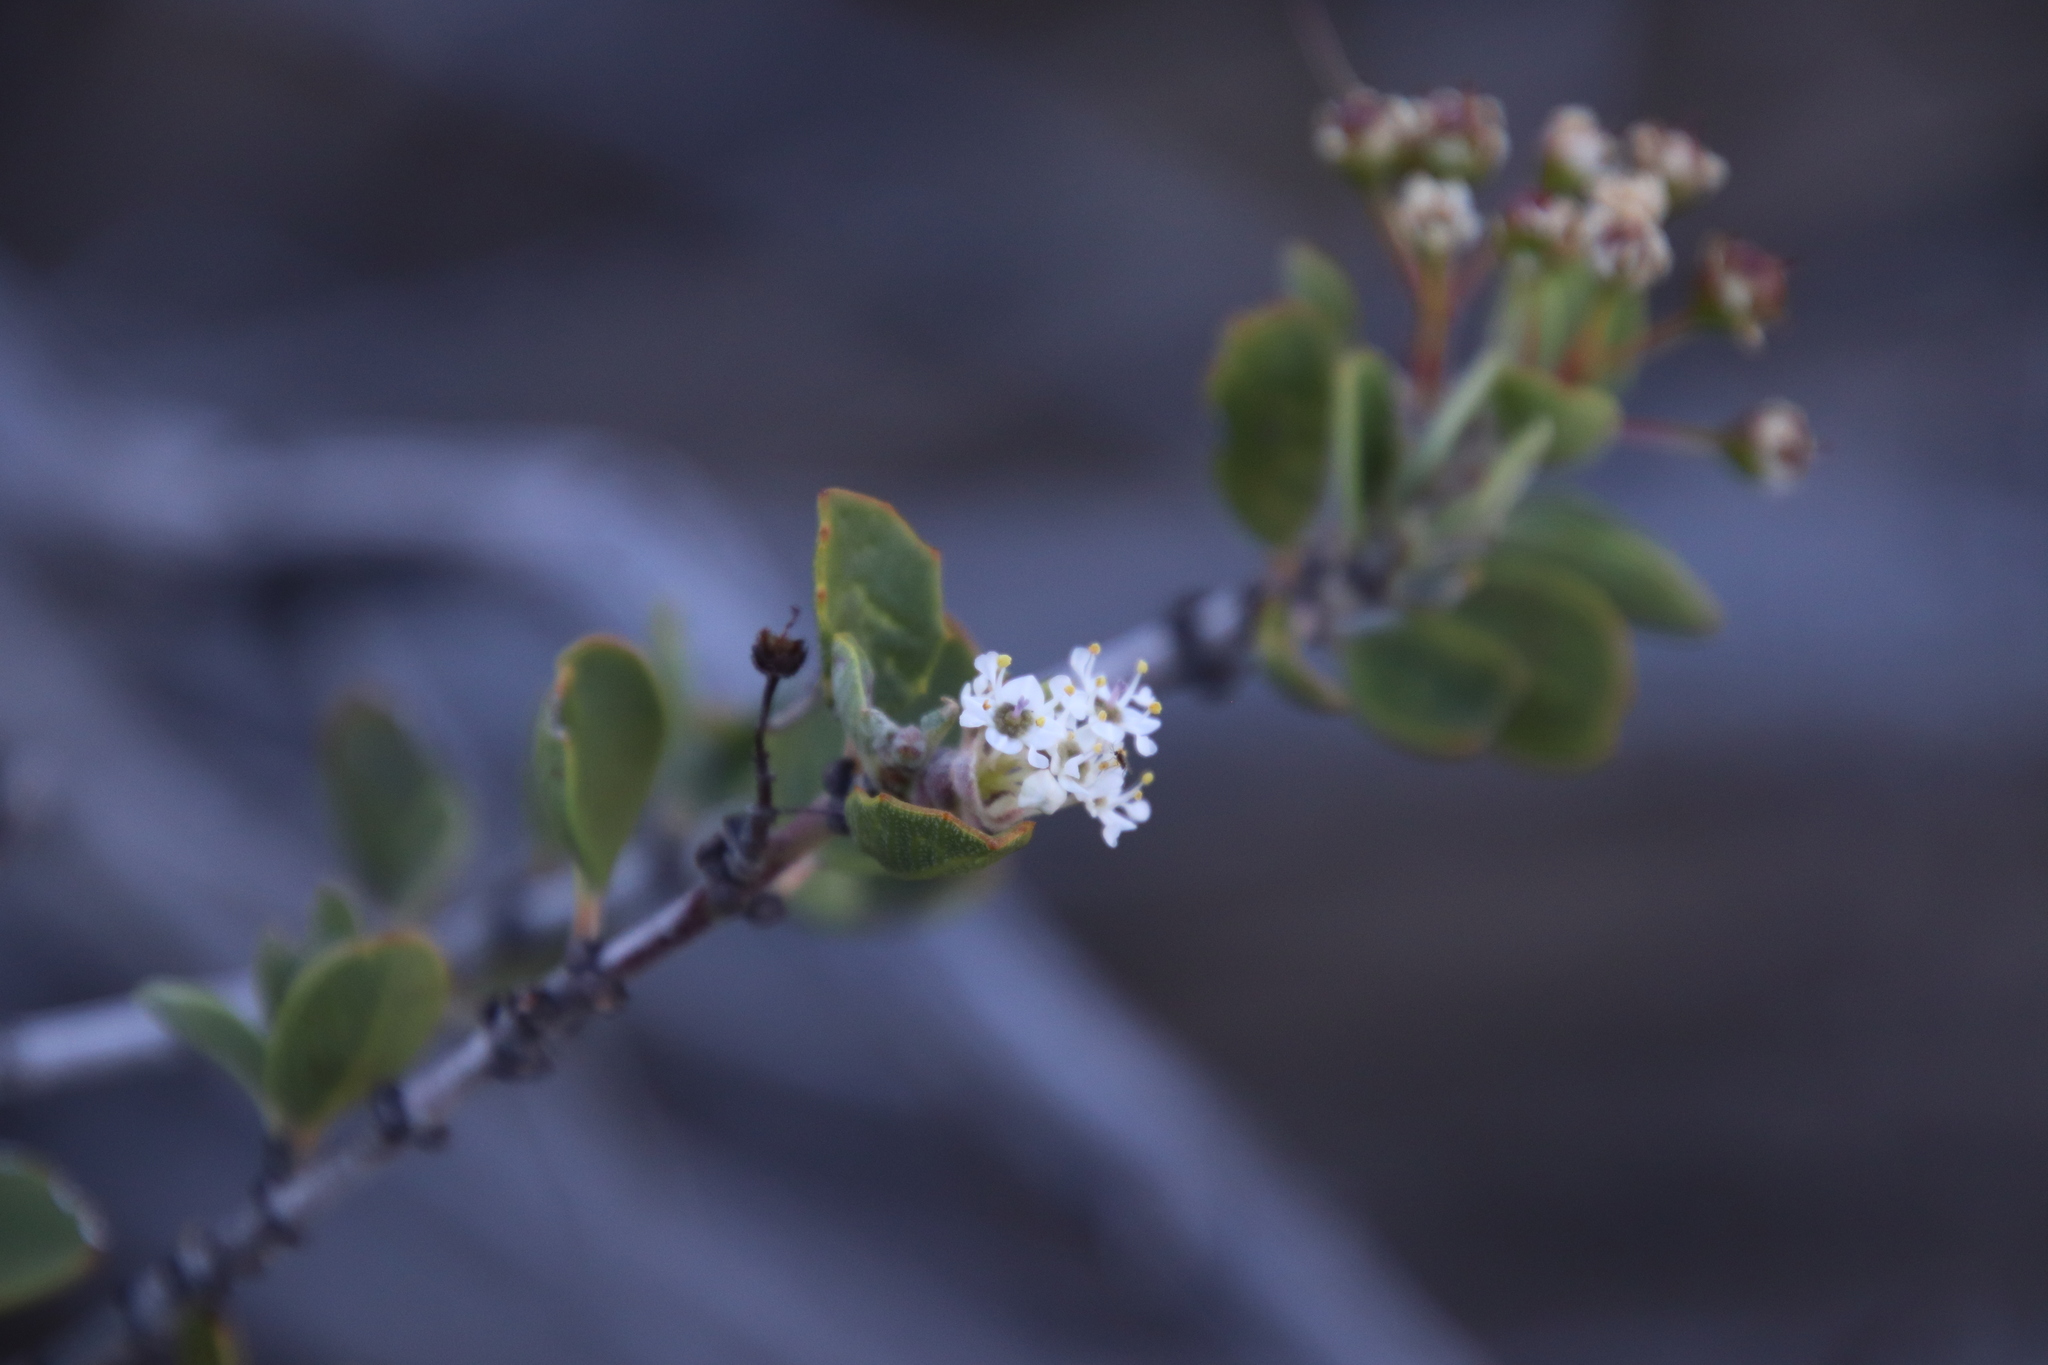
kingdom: Plantae
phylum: Tracheophyta
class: Magnoliopsida
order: Rosales
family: Rhamnaceae
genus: Ceanothus
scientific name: Ceanothus perplexans
